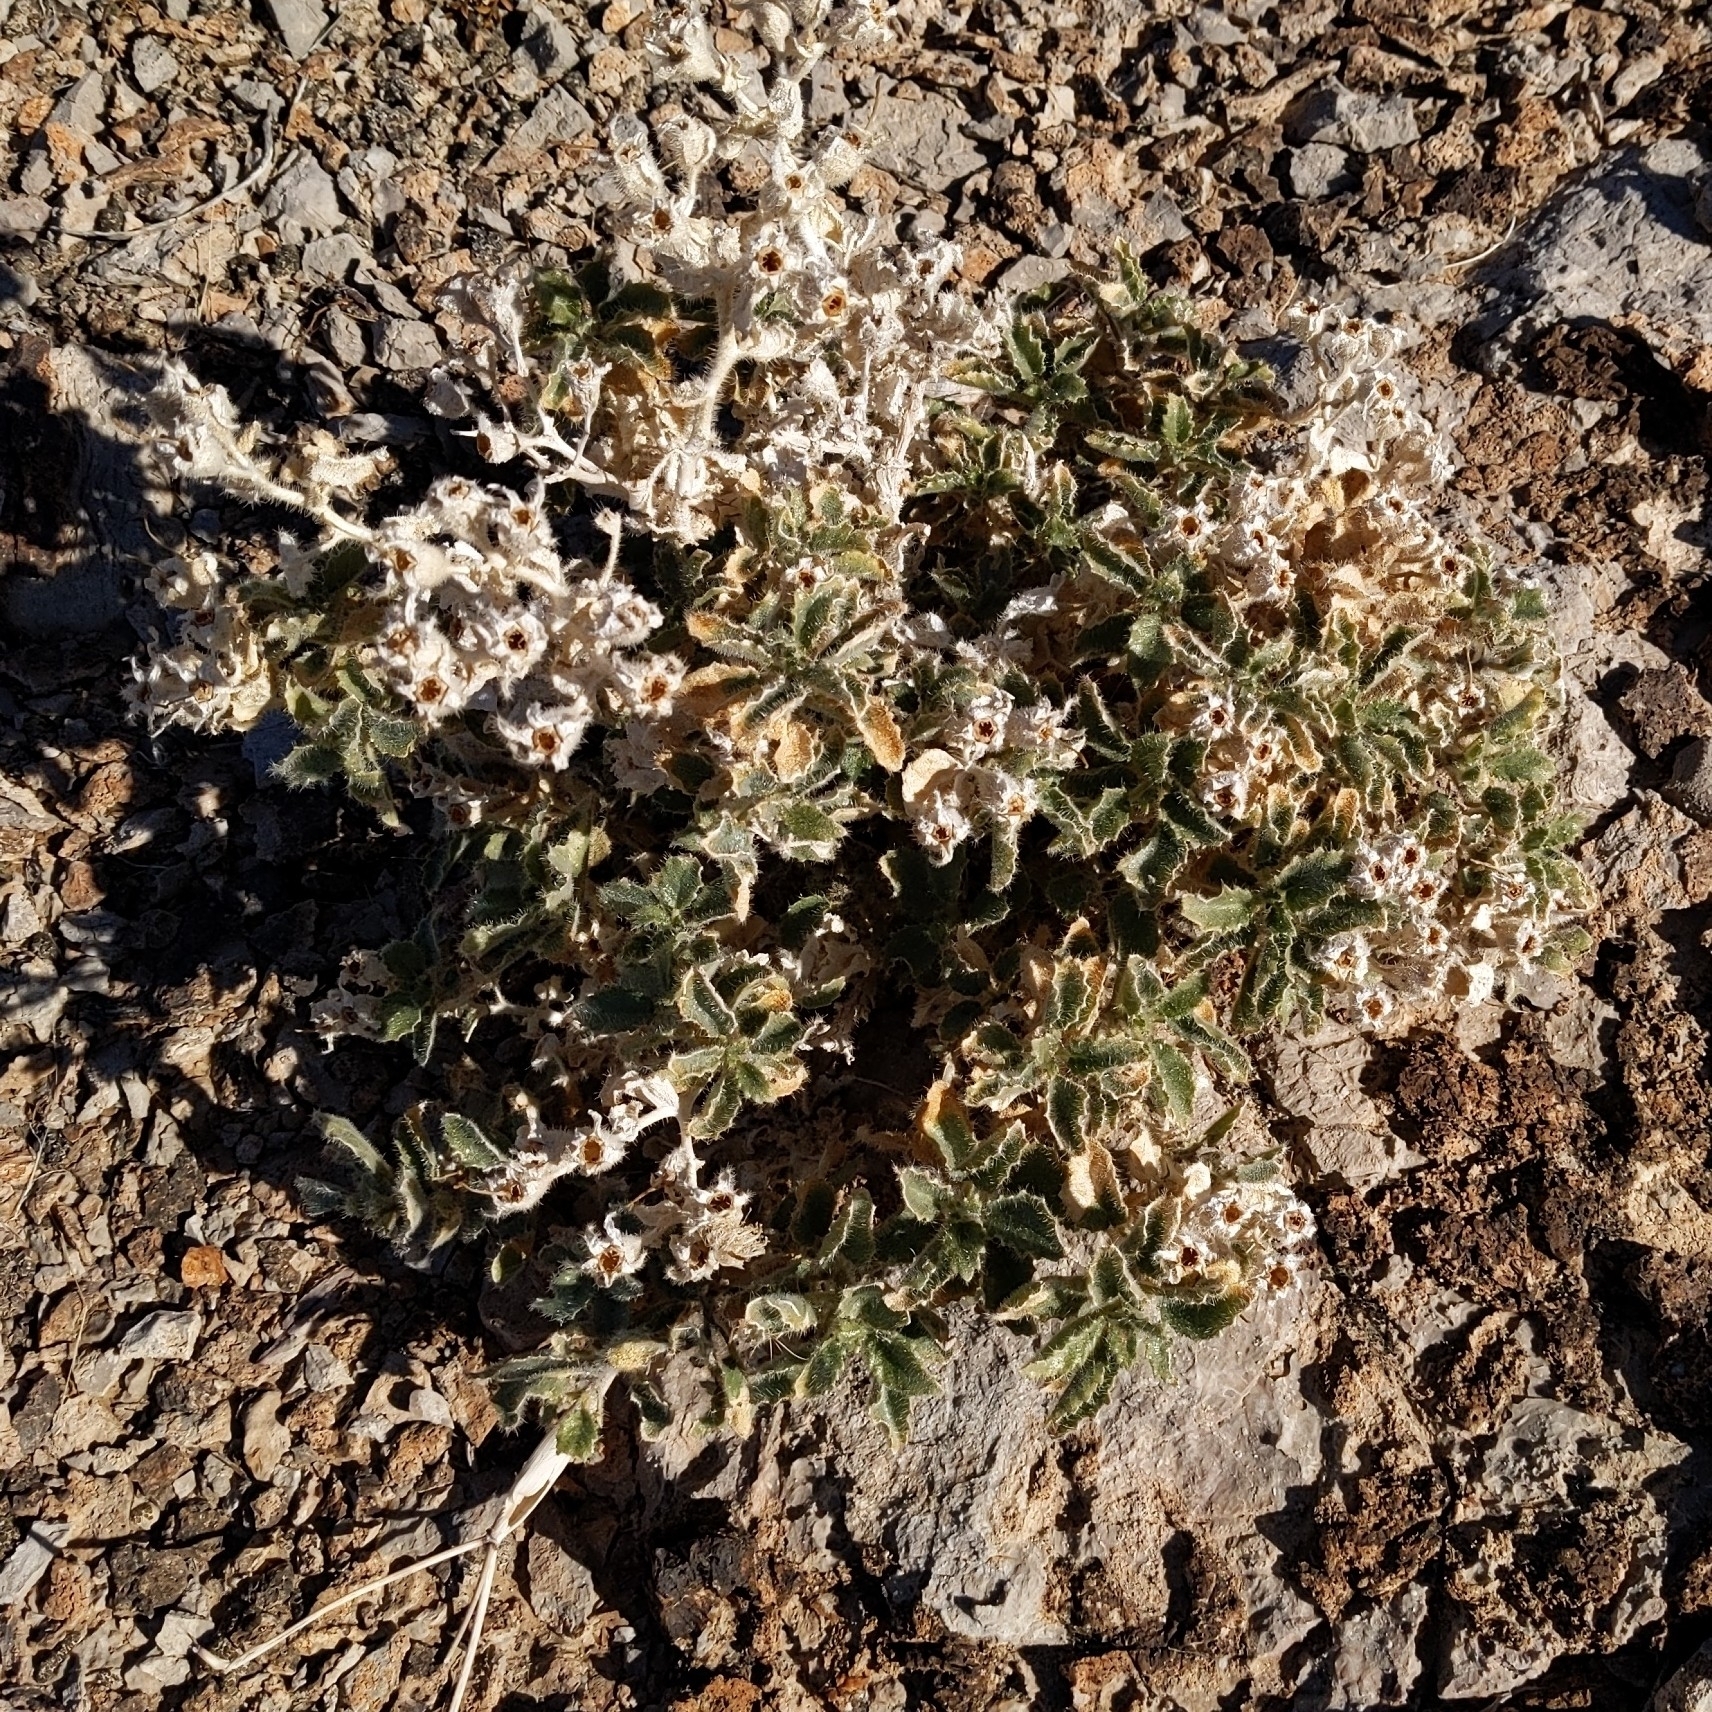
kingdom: Plantae
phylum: Tracheophyta
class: Magnoliopsida
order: Cornales
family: Loasaceae
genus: Eucnide
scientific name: Eucnide urens
